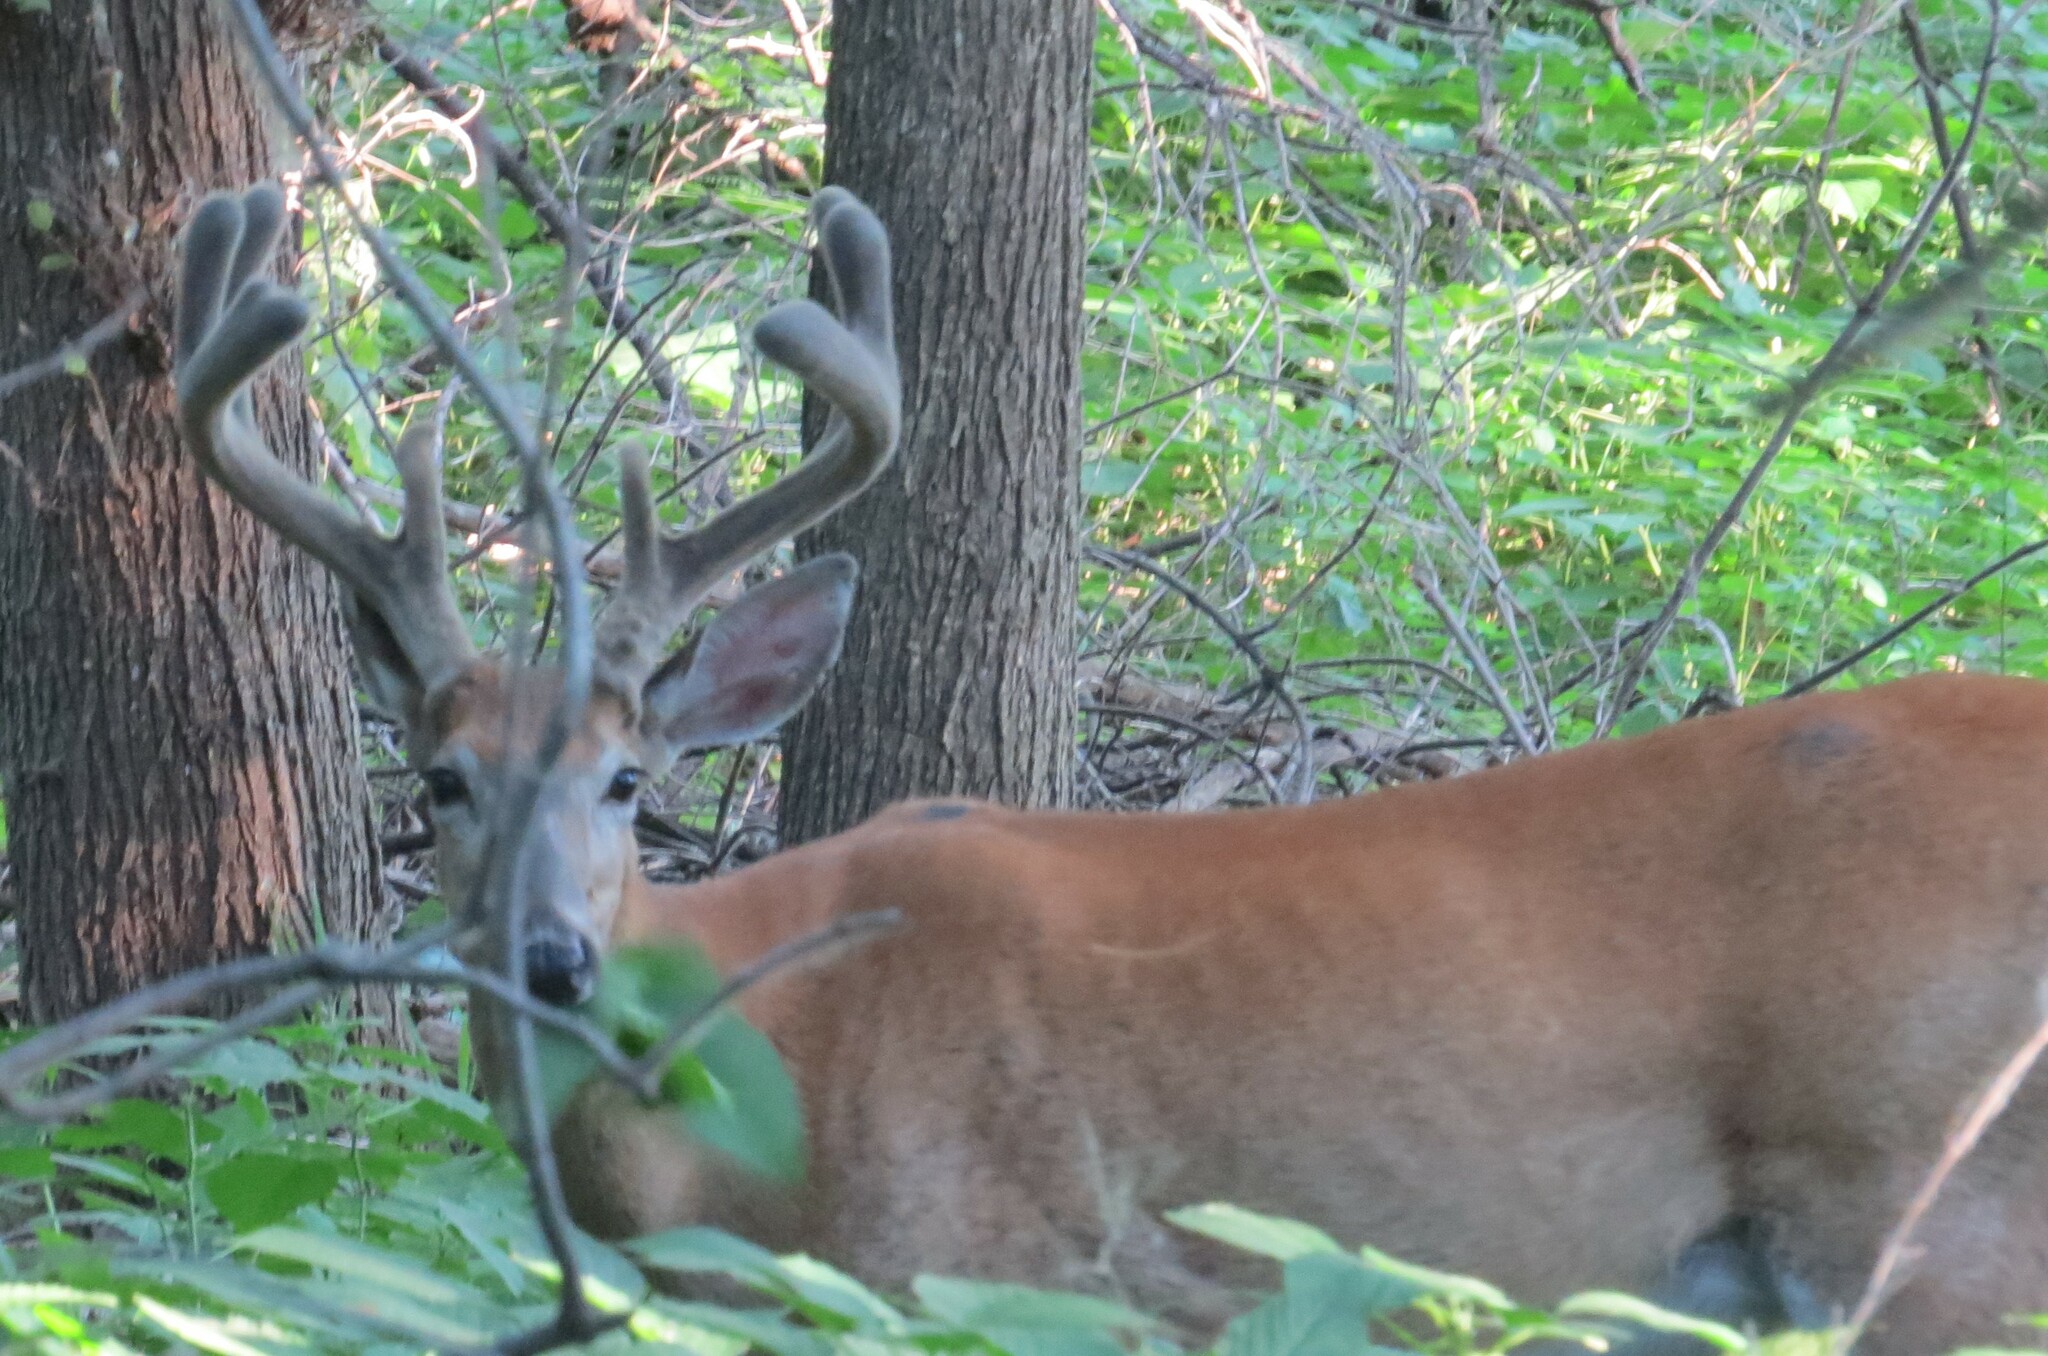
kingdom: Animalia
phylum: Chordata
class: Mammalia
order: Artiodactyla
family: Cervidae
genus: Odocoileus
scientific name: Odocoileus virginianus
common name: White-tailed deer
